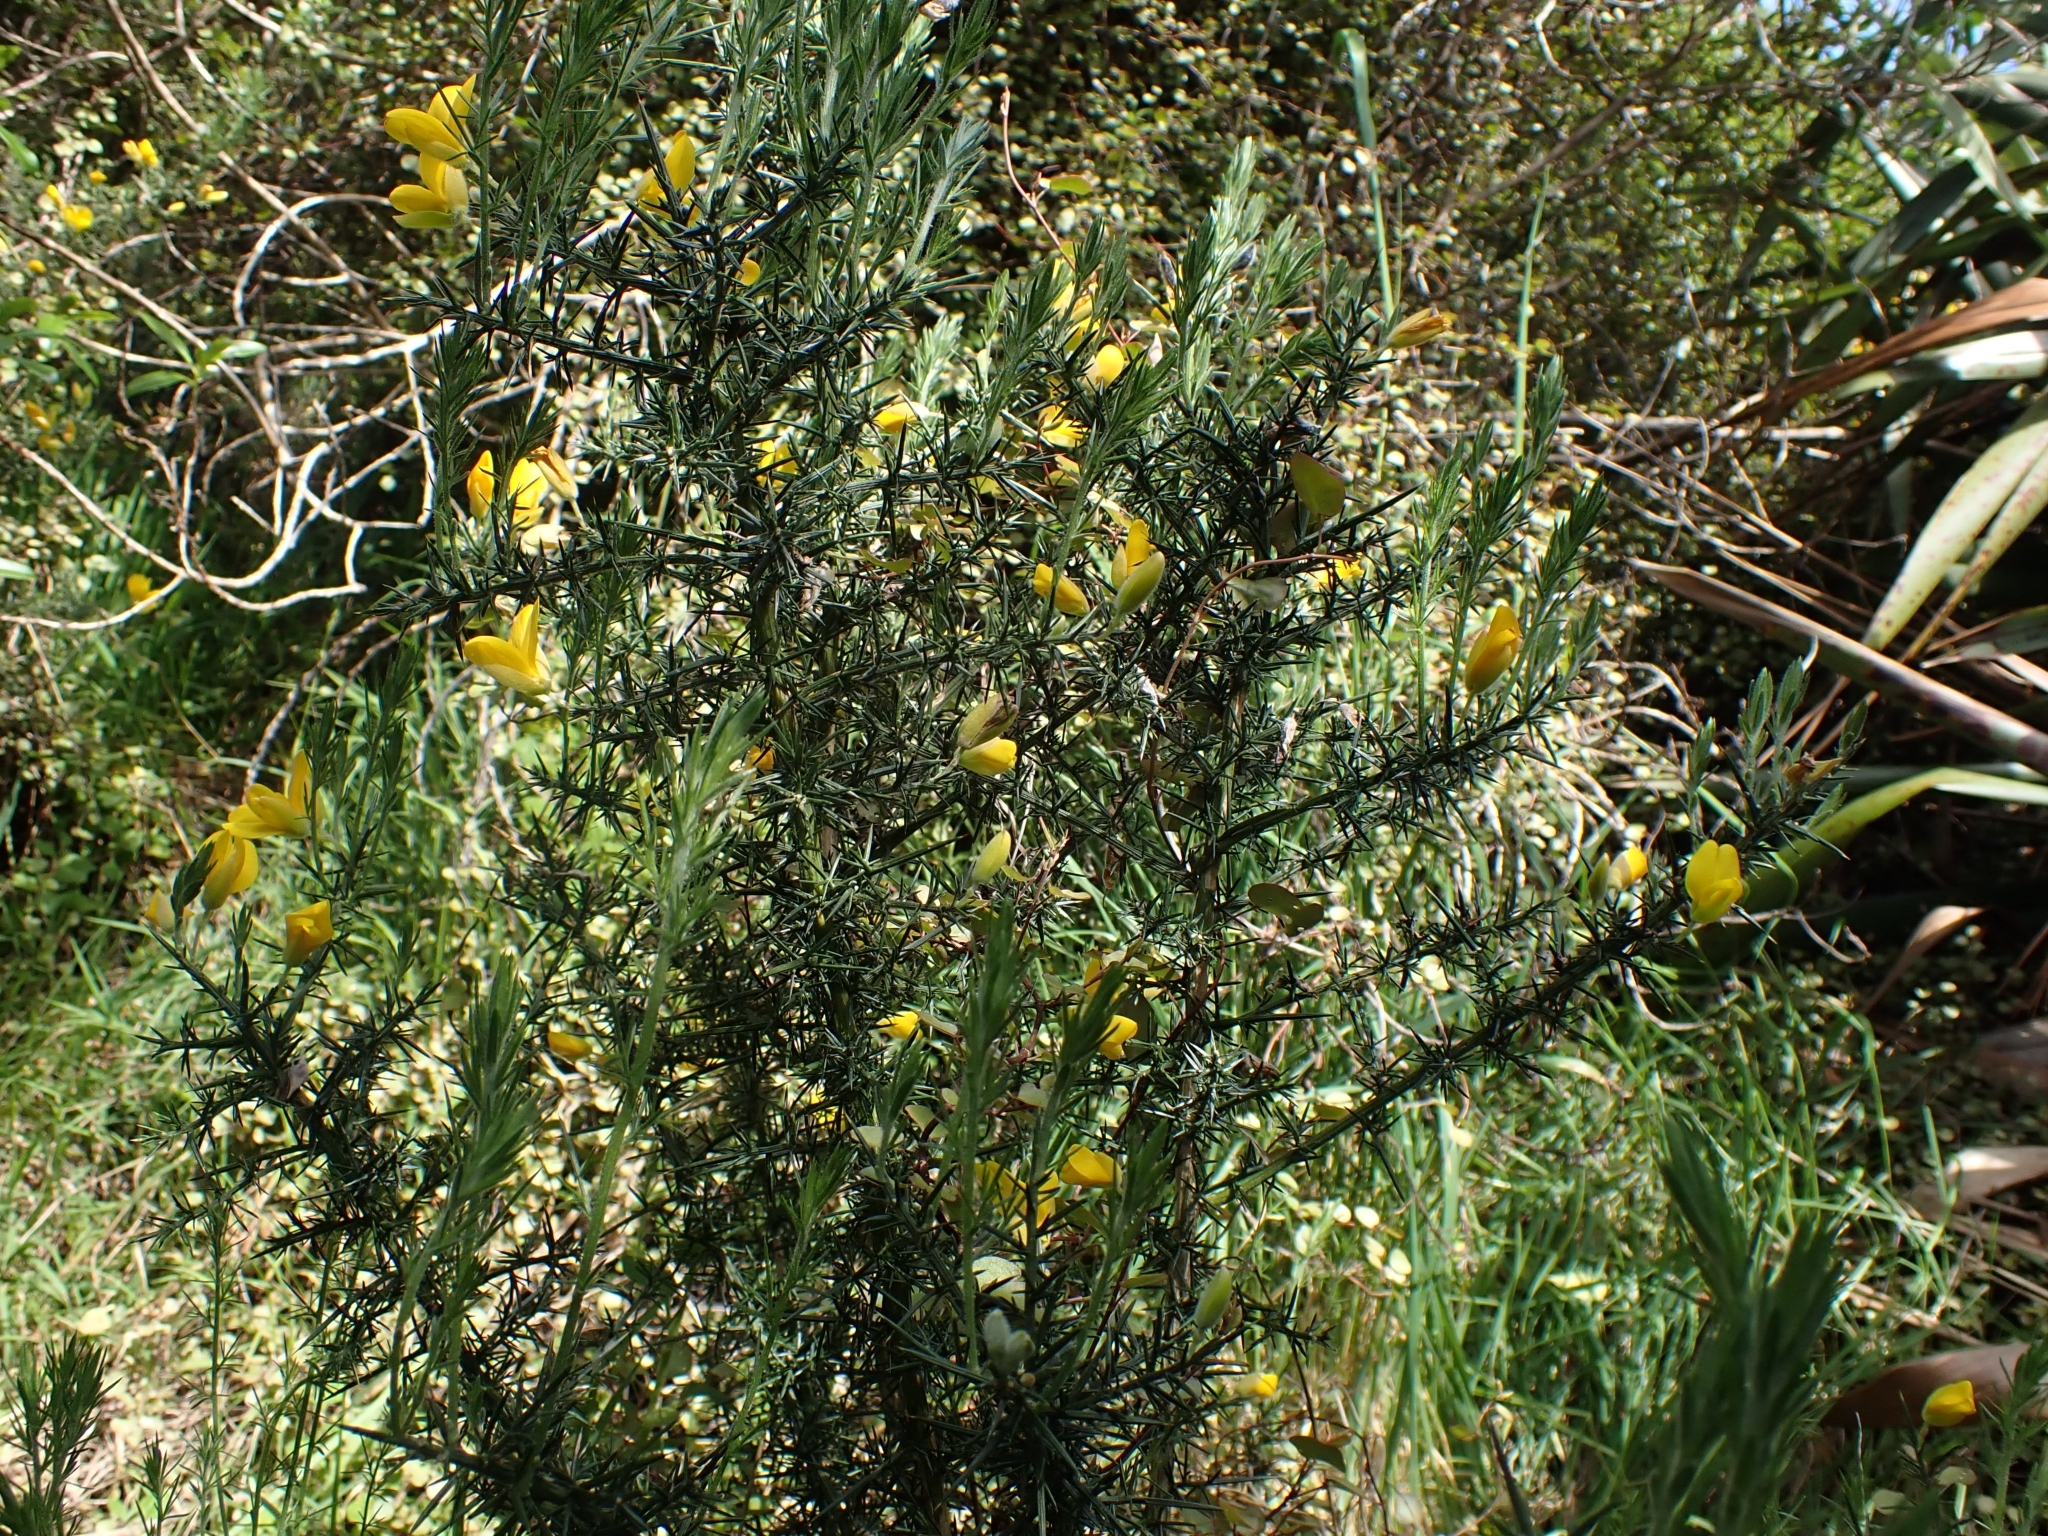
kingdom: Plantae
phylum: Tracheophyta
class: Magnoliopsida
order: Fabales
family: Fabaceae
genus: Ulex
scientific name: Ulex europaeus
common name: Common gorse
